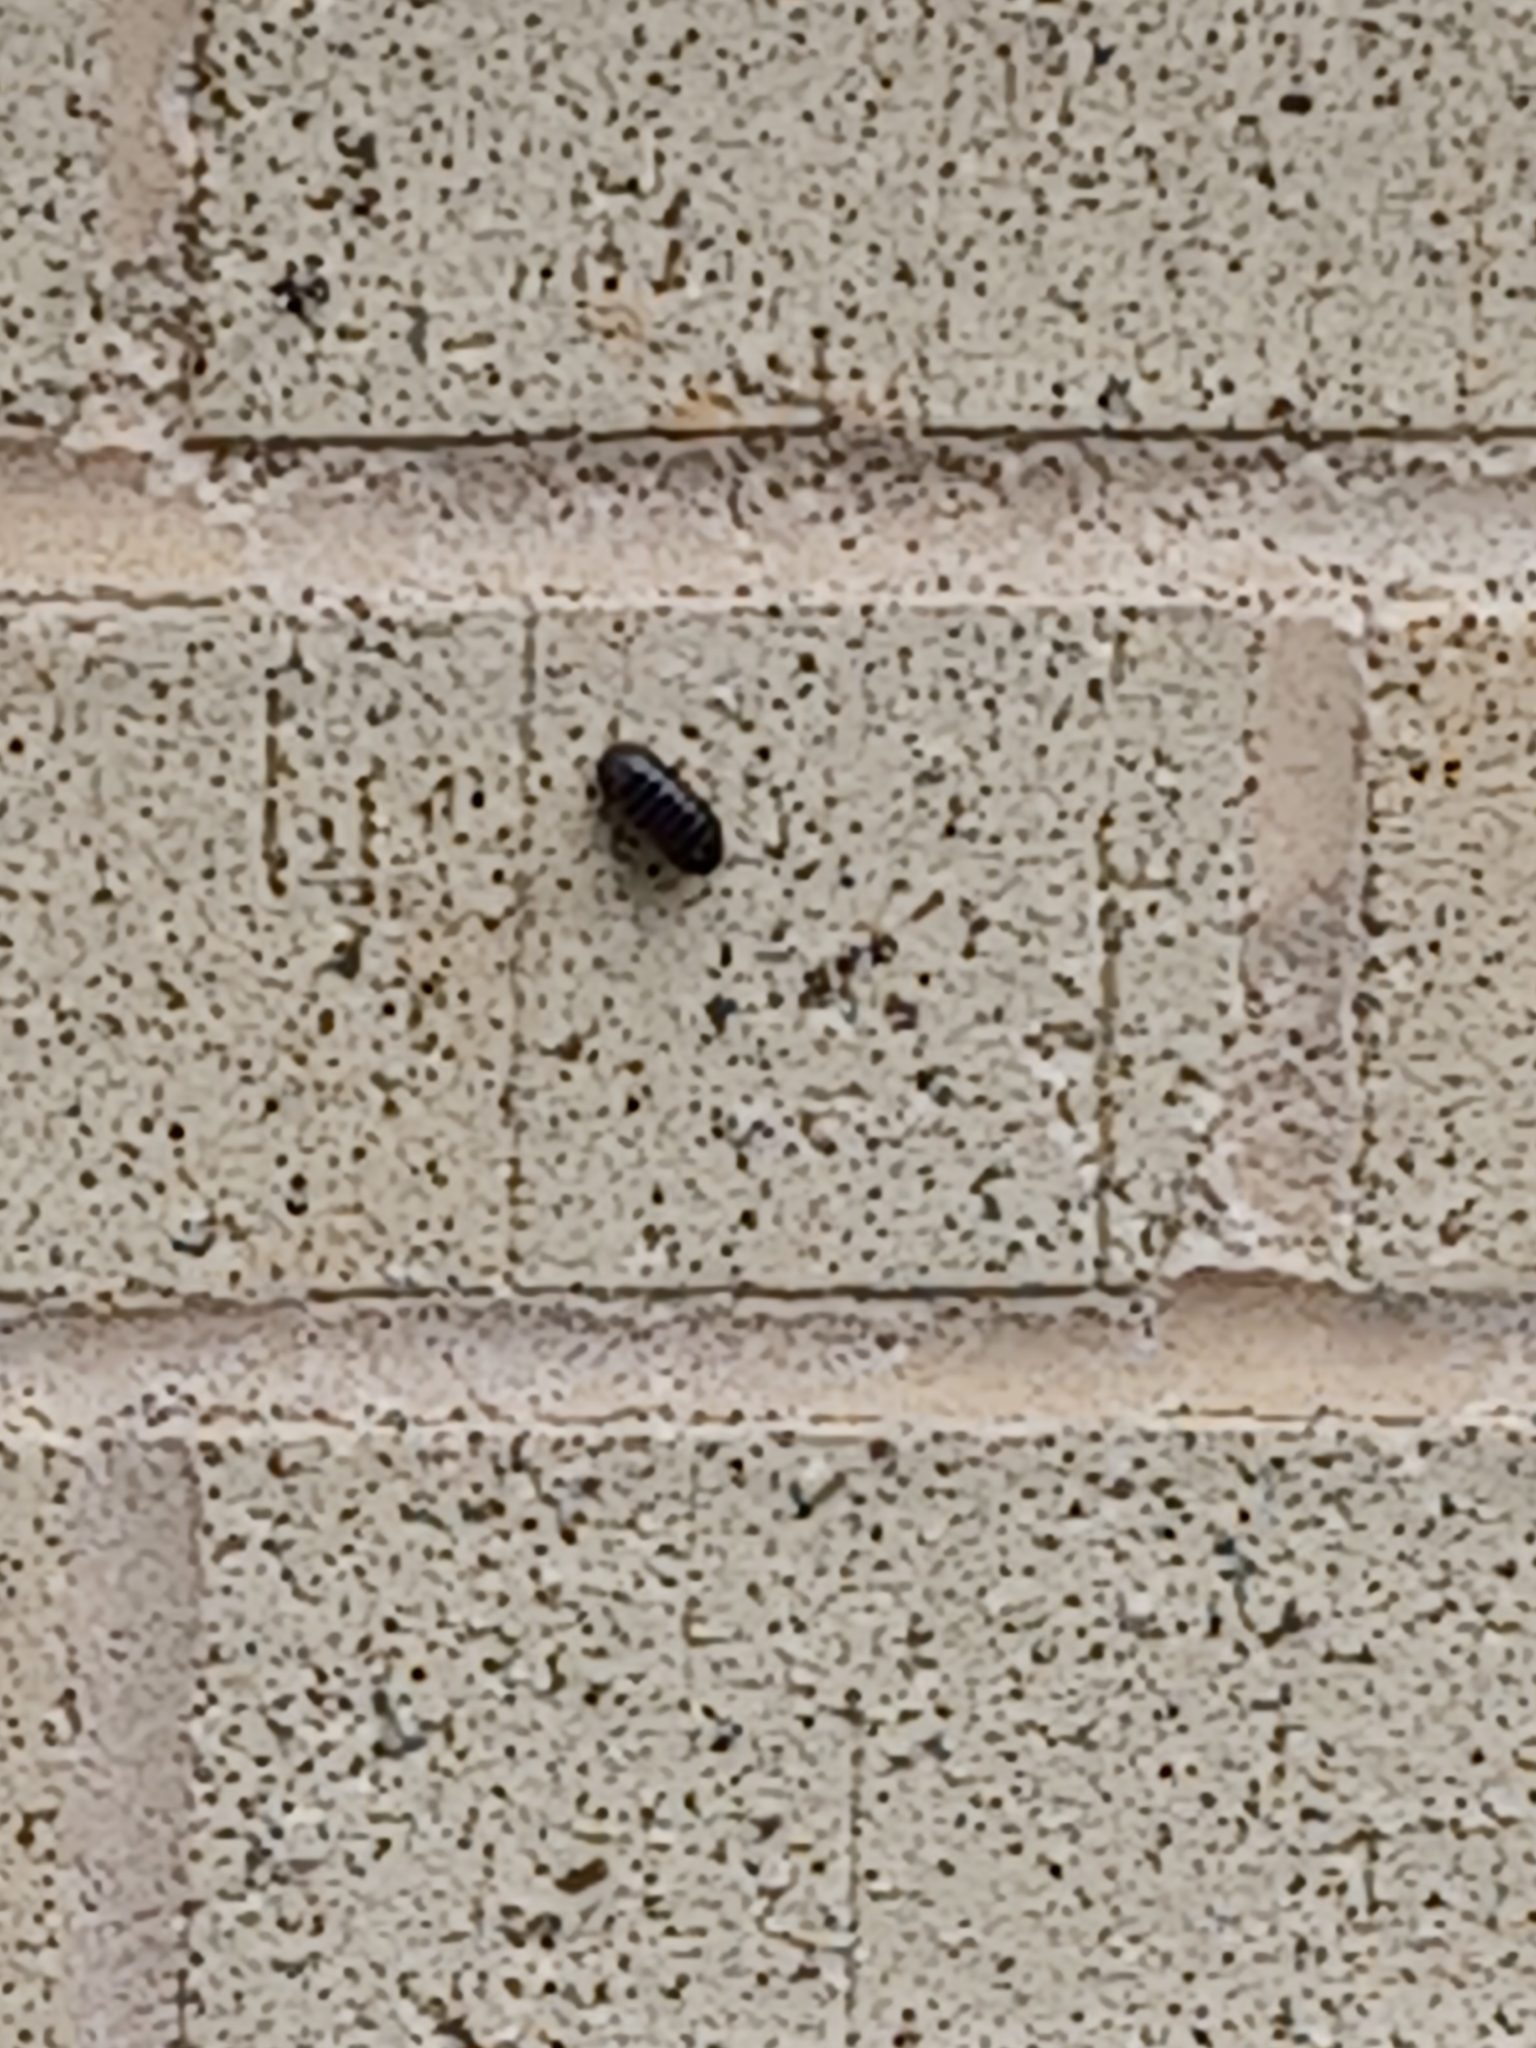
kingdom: Animalia
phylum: Arthropoda
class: Malacostraca
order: Isopoda
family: Armadillidiidae
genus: Armadillidium
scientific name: Armadillidium vulgare
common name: Common pill woodlouse
